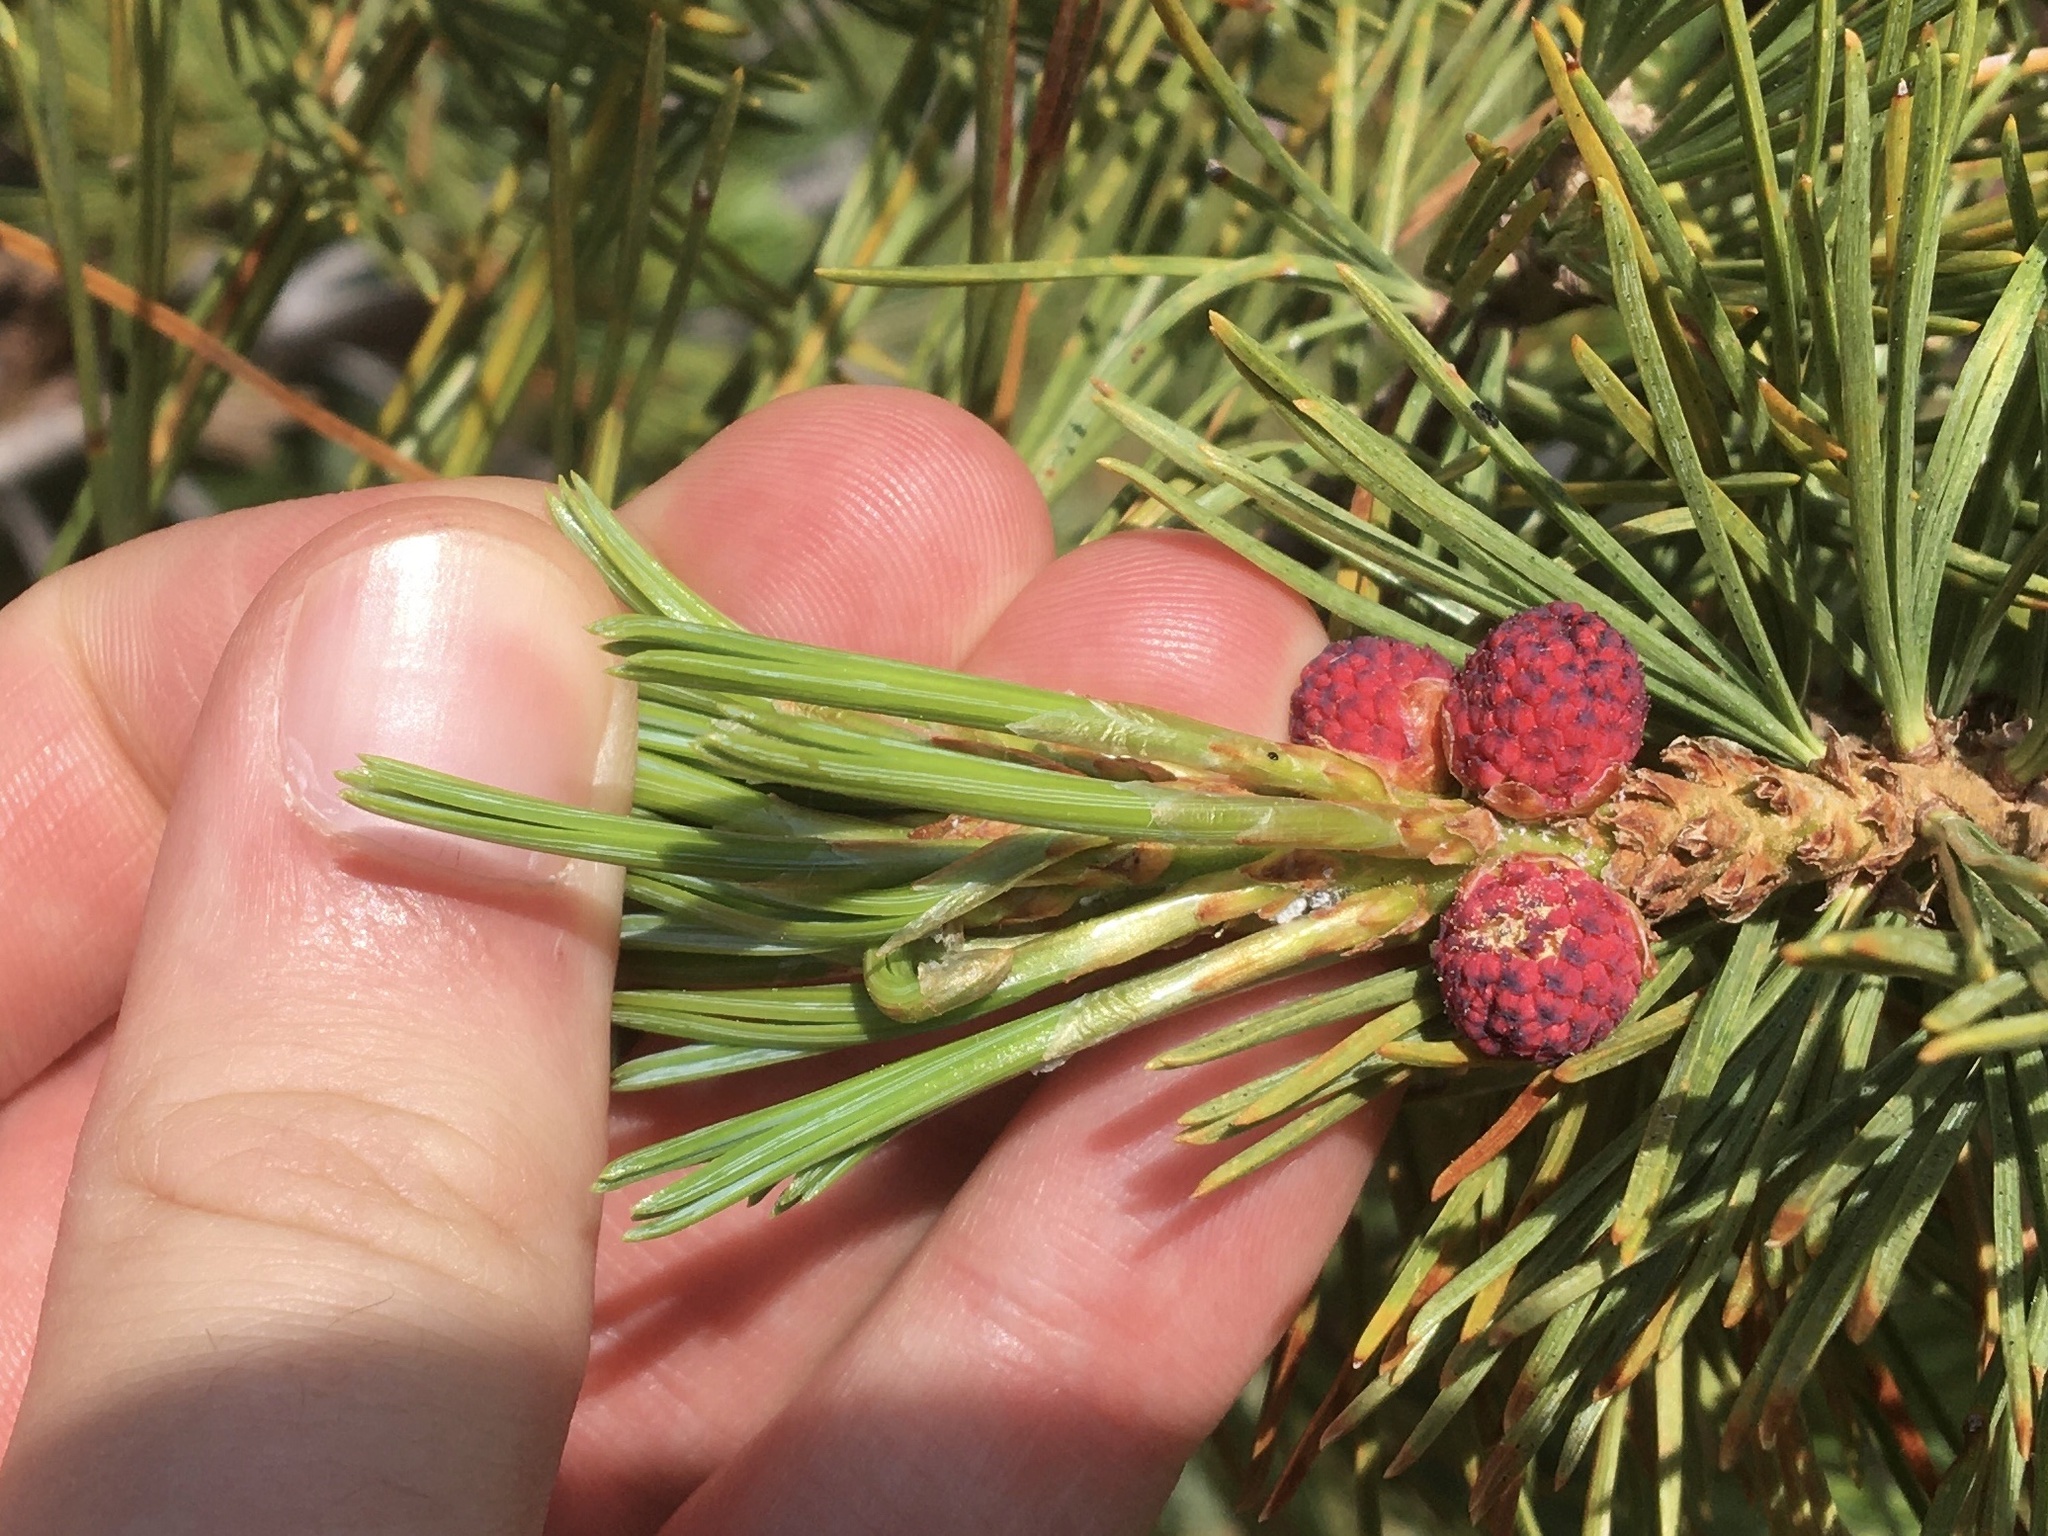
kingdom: Plantae
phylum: Tracheophyta
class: Pinopsida
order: Pinales
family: Pinaceae
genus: Pinus
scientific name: Pinus albicaulis
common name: Whitebark pine
